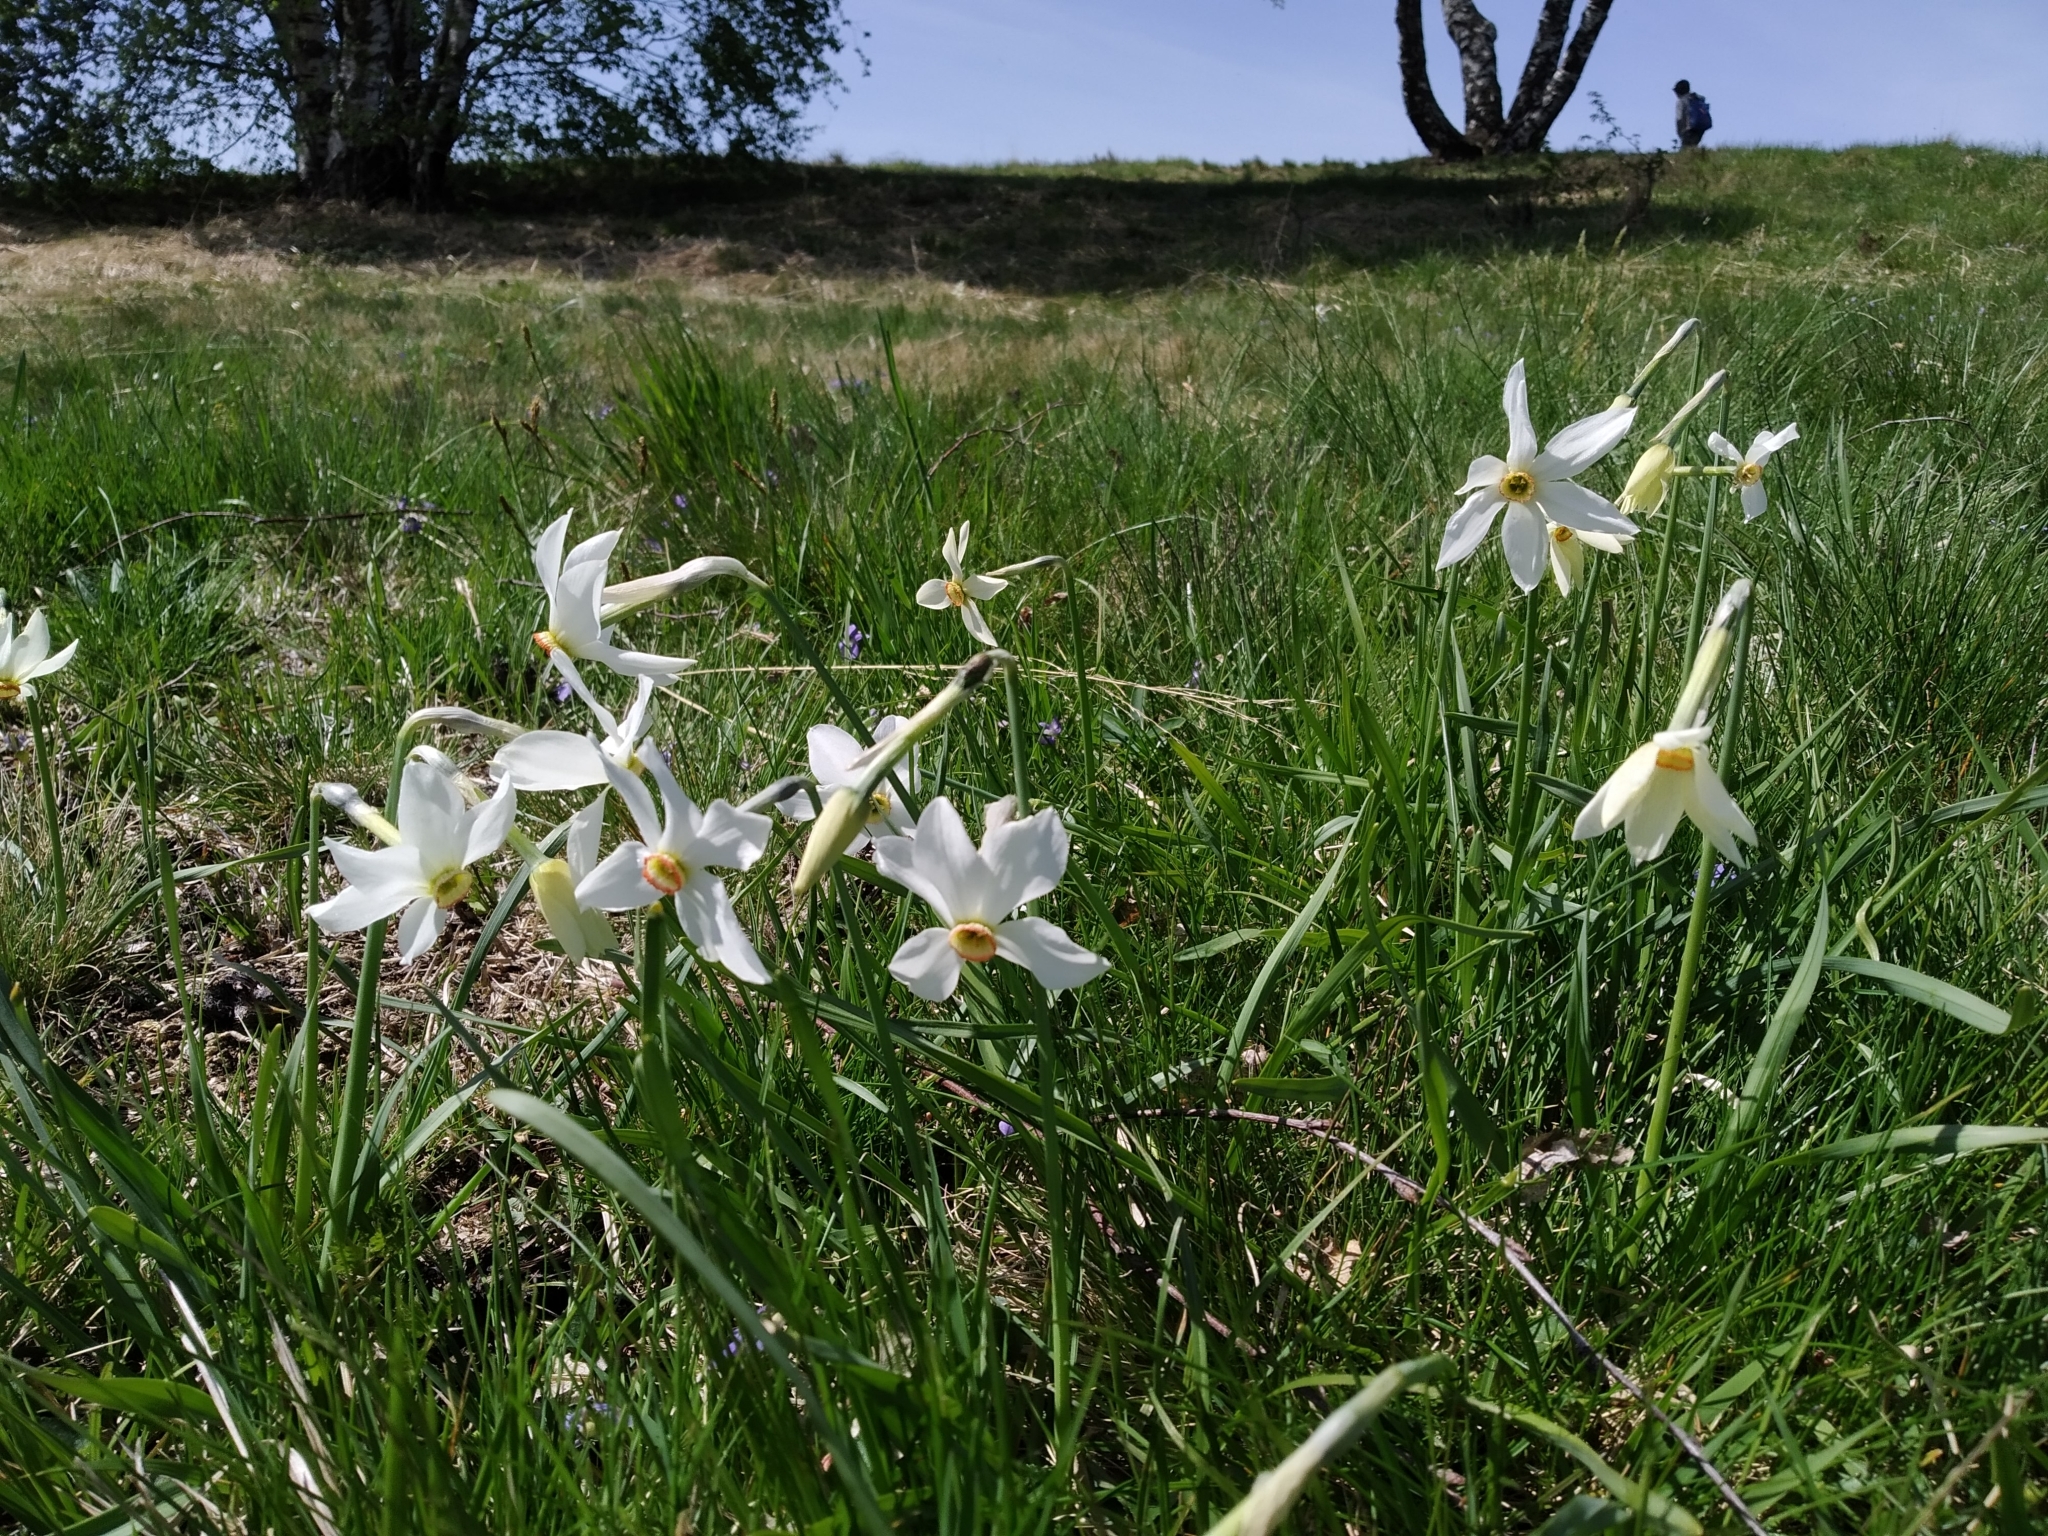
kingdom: Plantae
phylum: Tracheophyta
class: Liliopsida
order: Asparagales
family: Amaryllidaceae
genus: Narcissus
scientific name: Narcissus poeticus
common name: Pheasant's-eye daffodil
